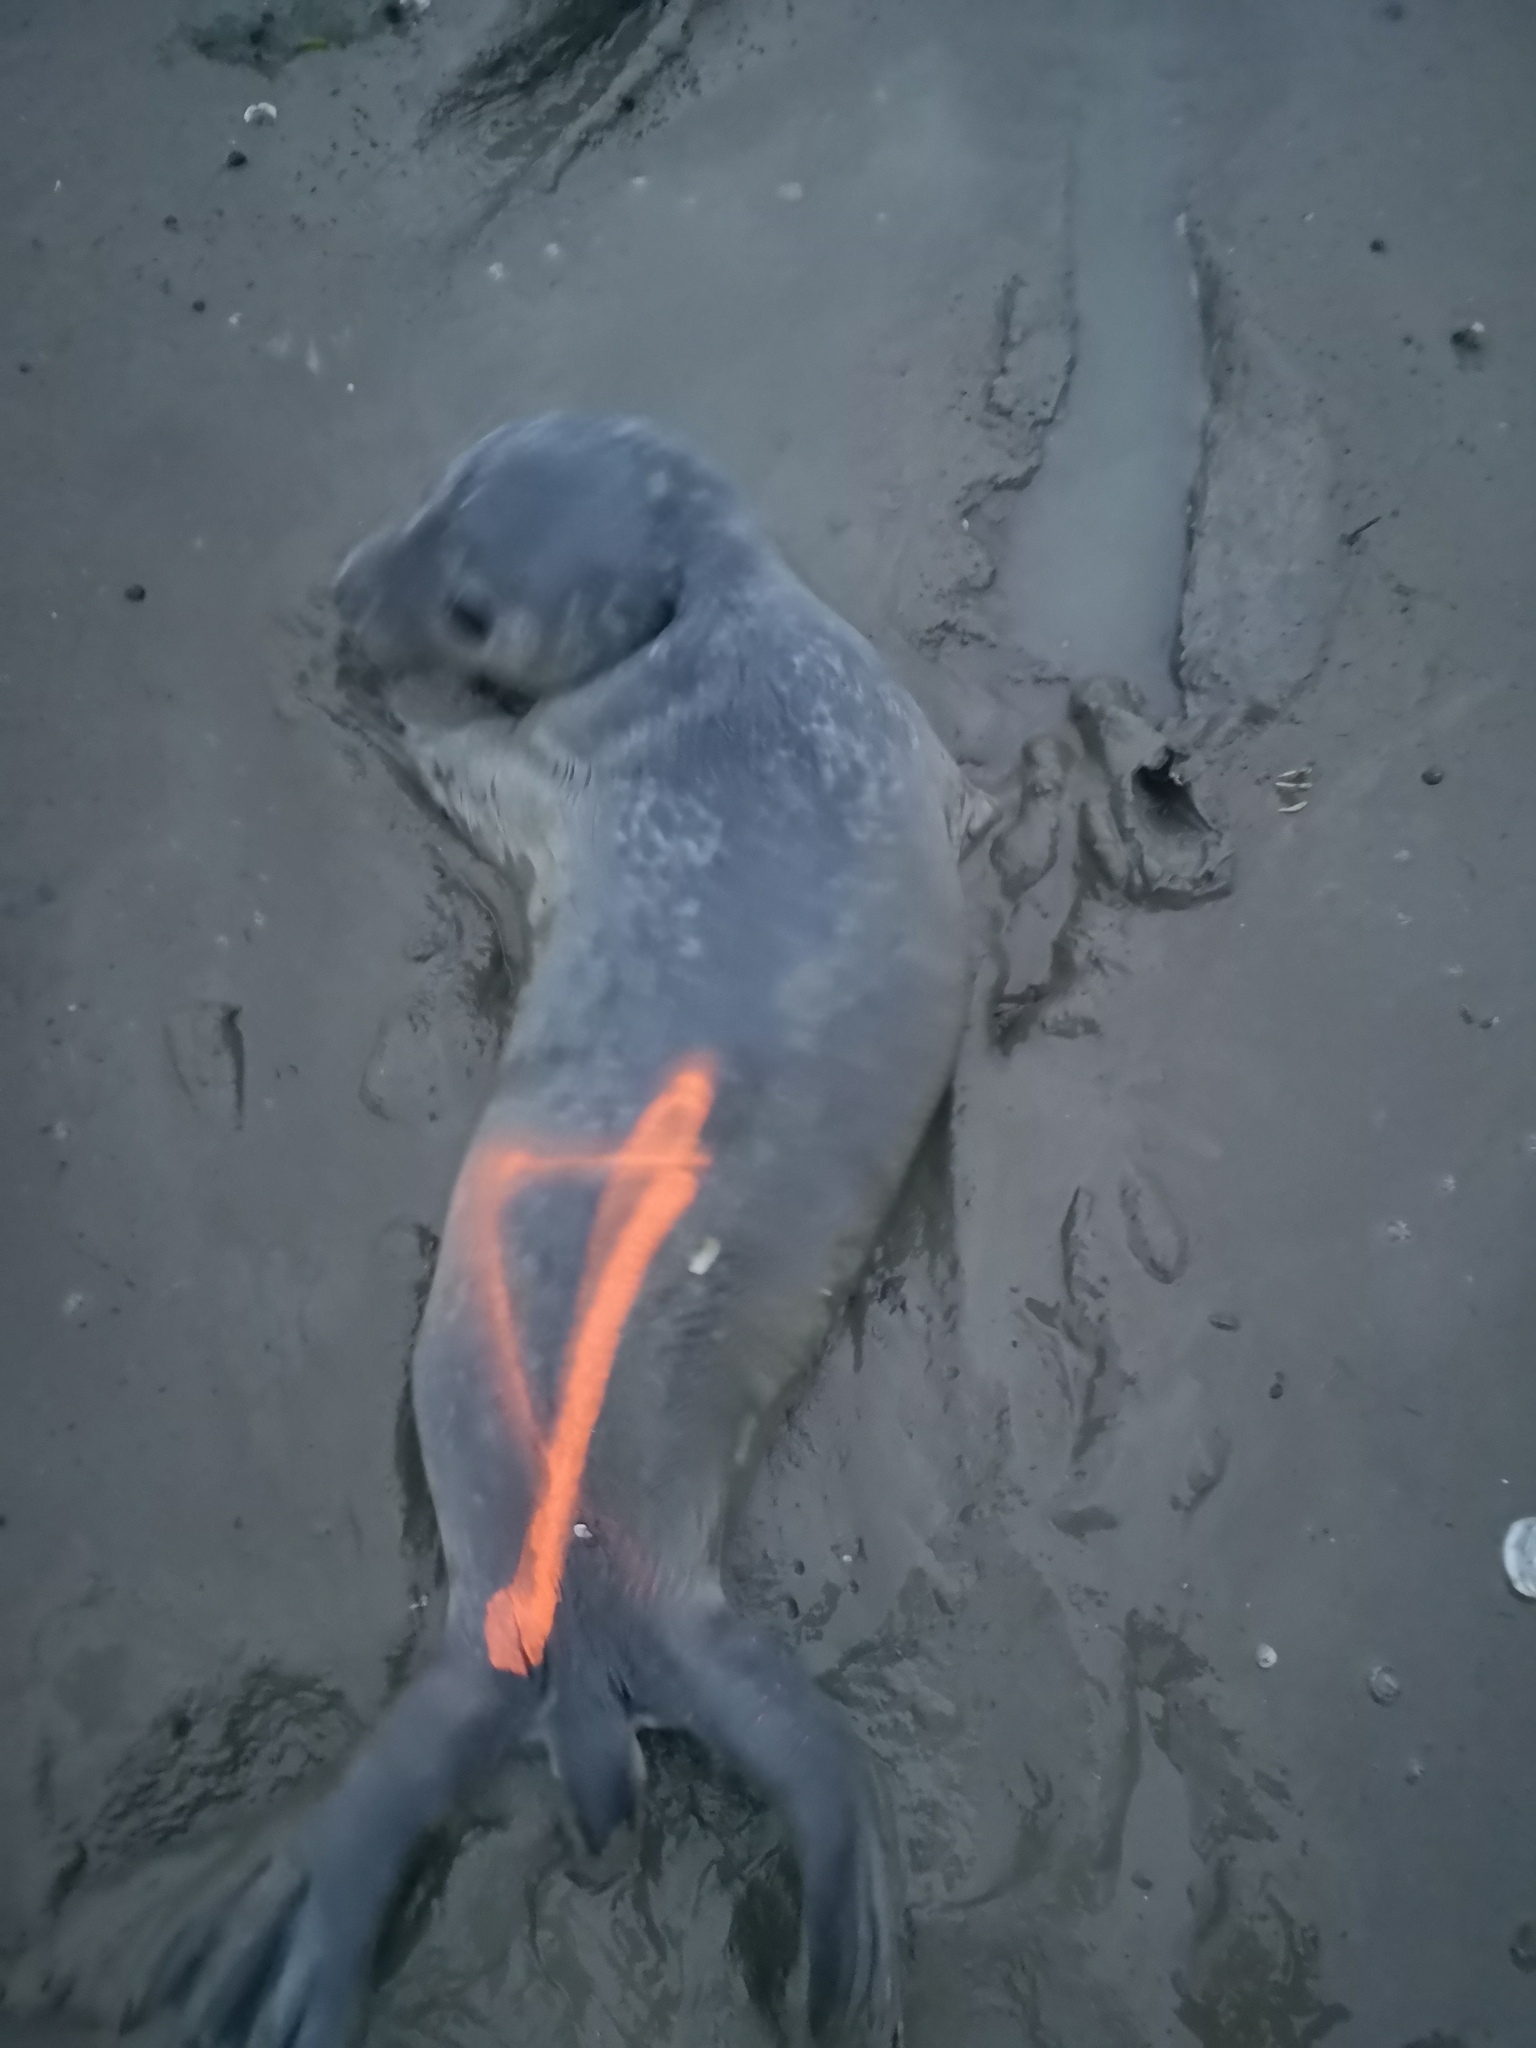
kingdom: Animalia
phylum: Chordata
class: Mammalia
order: Carnivora
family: Phocidae
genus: Phoca
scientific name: Phoca vitulina
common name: Harbor seal
